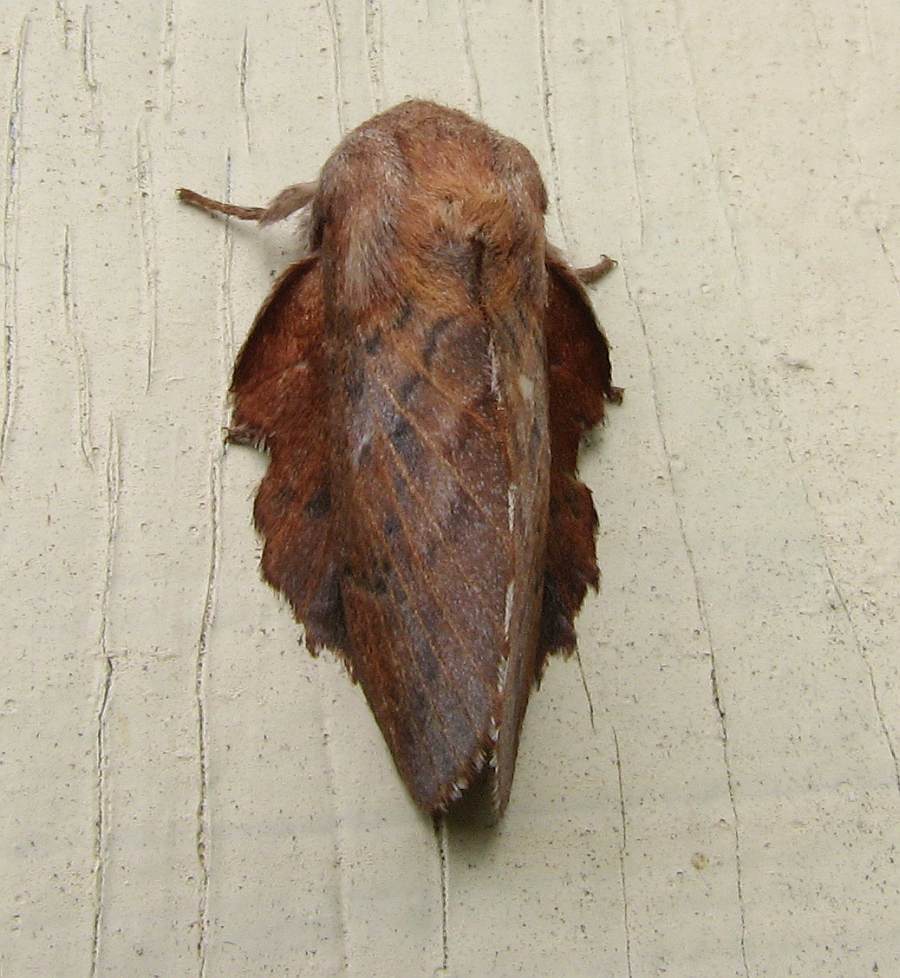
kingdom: Animalia
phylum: Arthropoda
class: Insecta
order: Lepidoptera
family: Lasiocampidae
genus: Phyllodesma
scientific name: Phyllodesma americana
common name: American lappet moth
